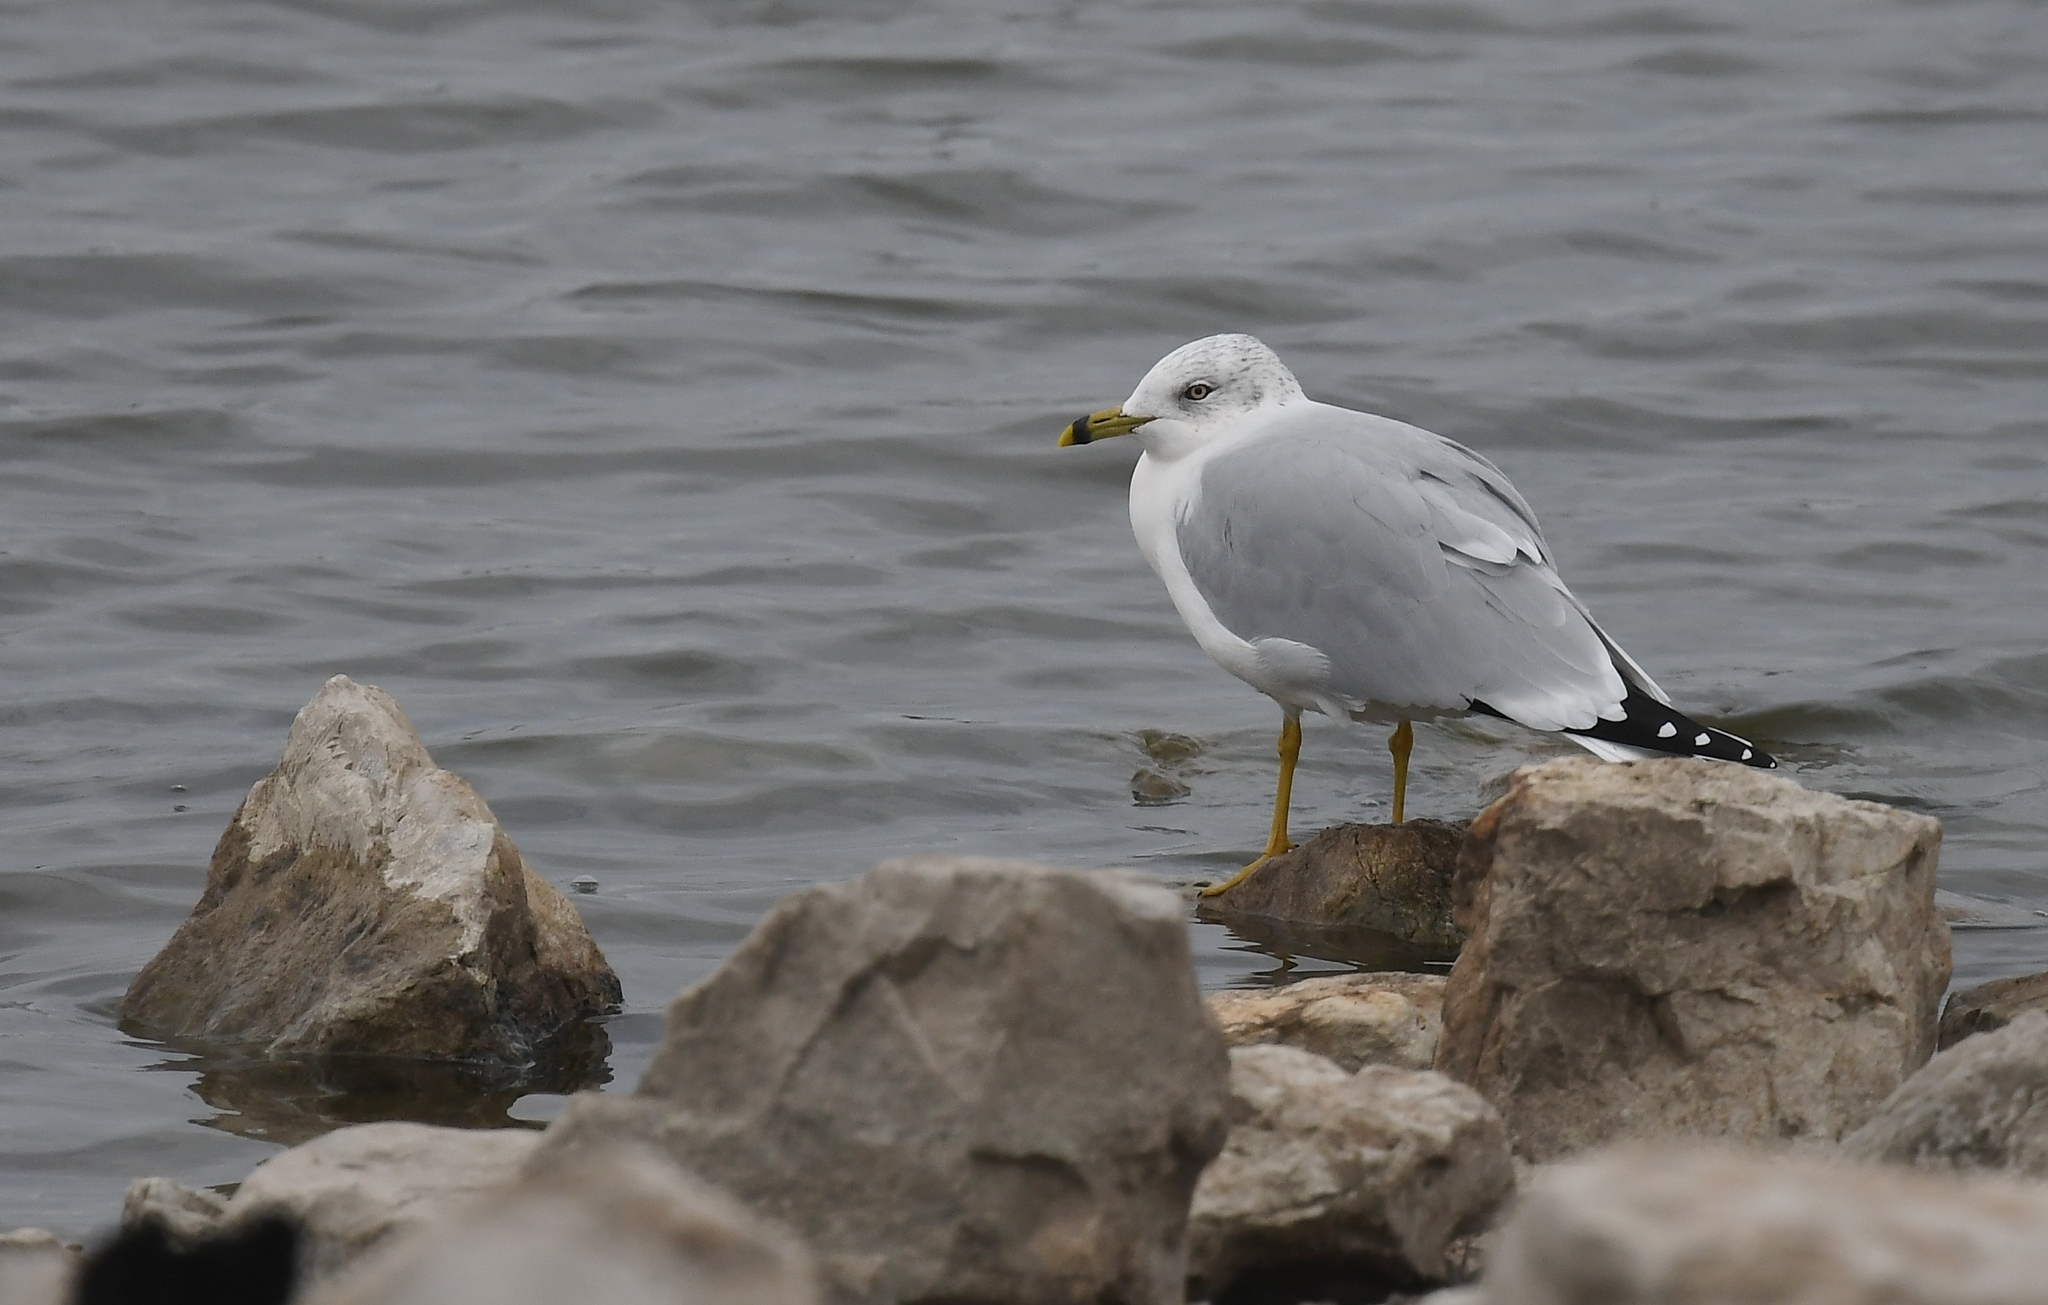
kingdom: Animalia
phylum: Chordata
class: Aves
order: Charadriiformes
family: Laridae
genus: Larus
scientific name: Larus delawarensis
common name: Ring-billed gull
